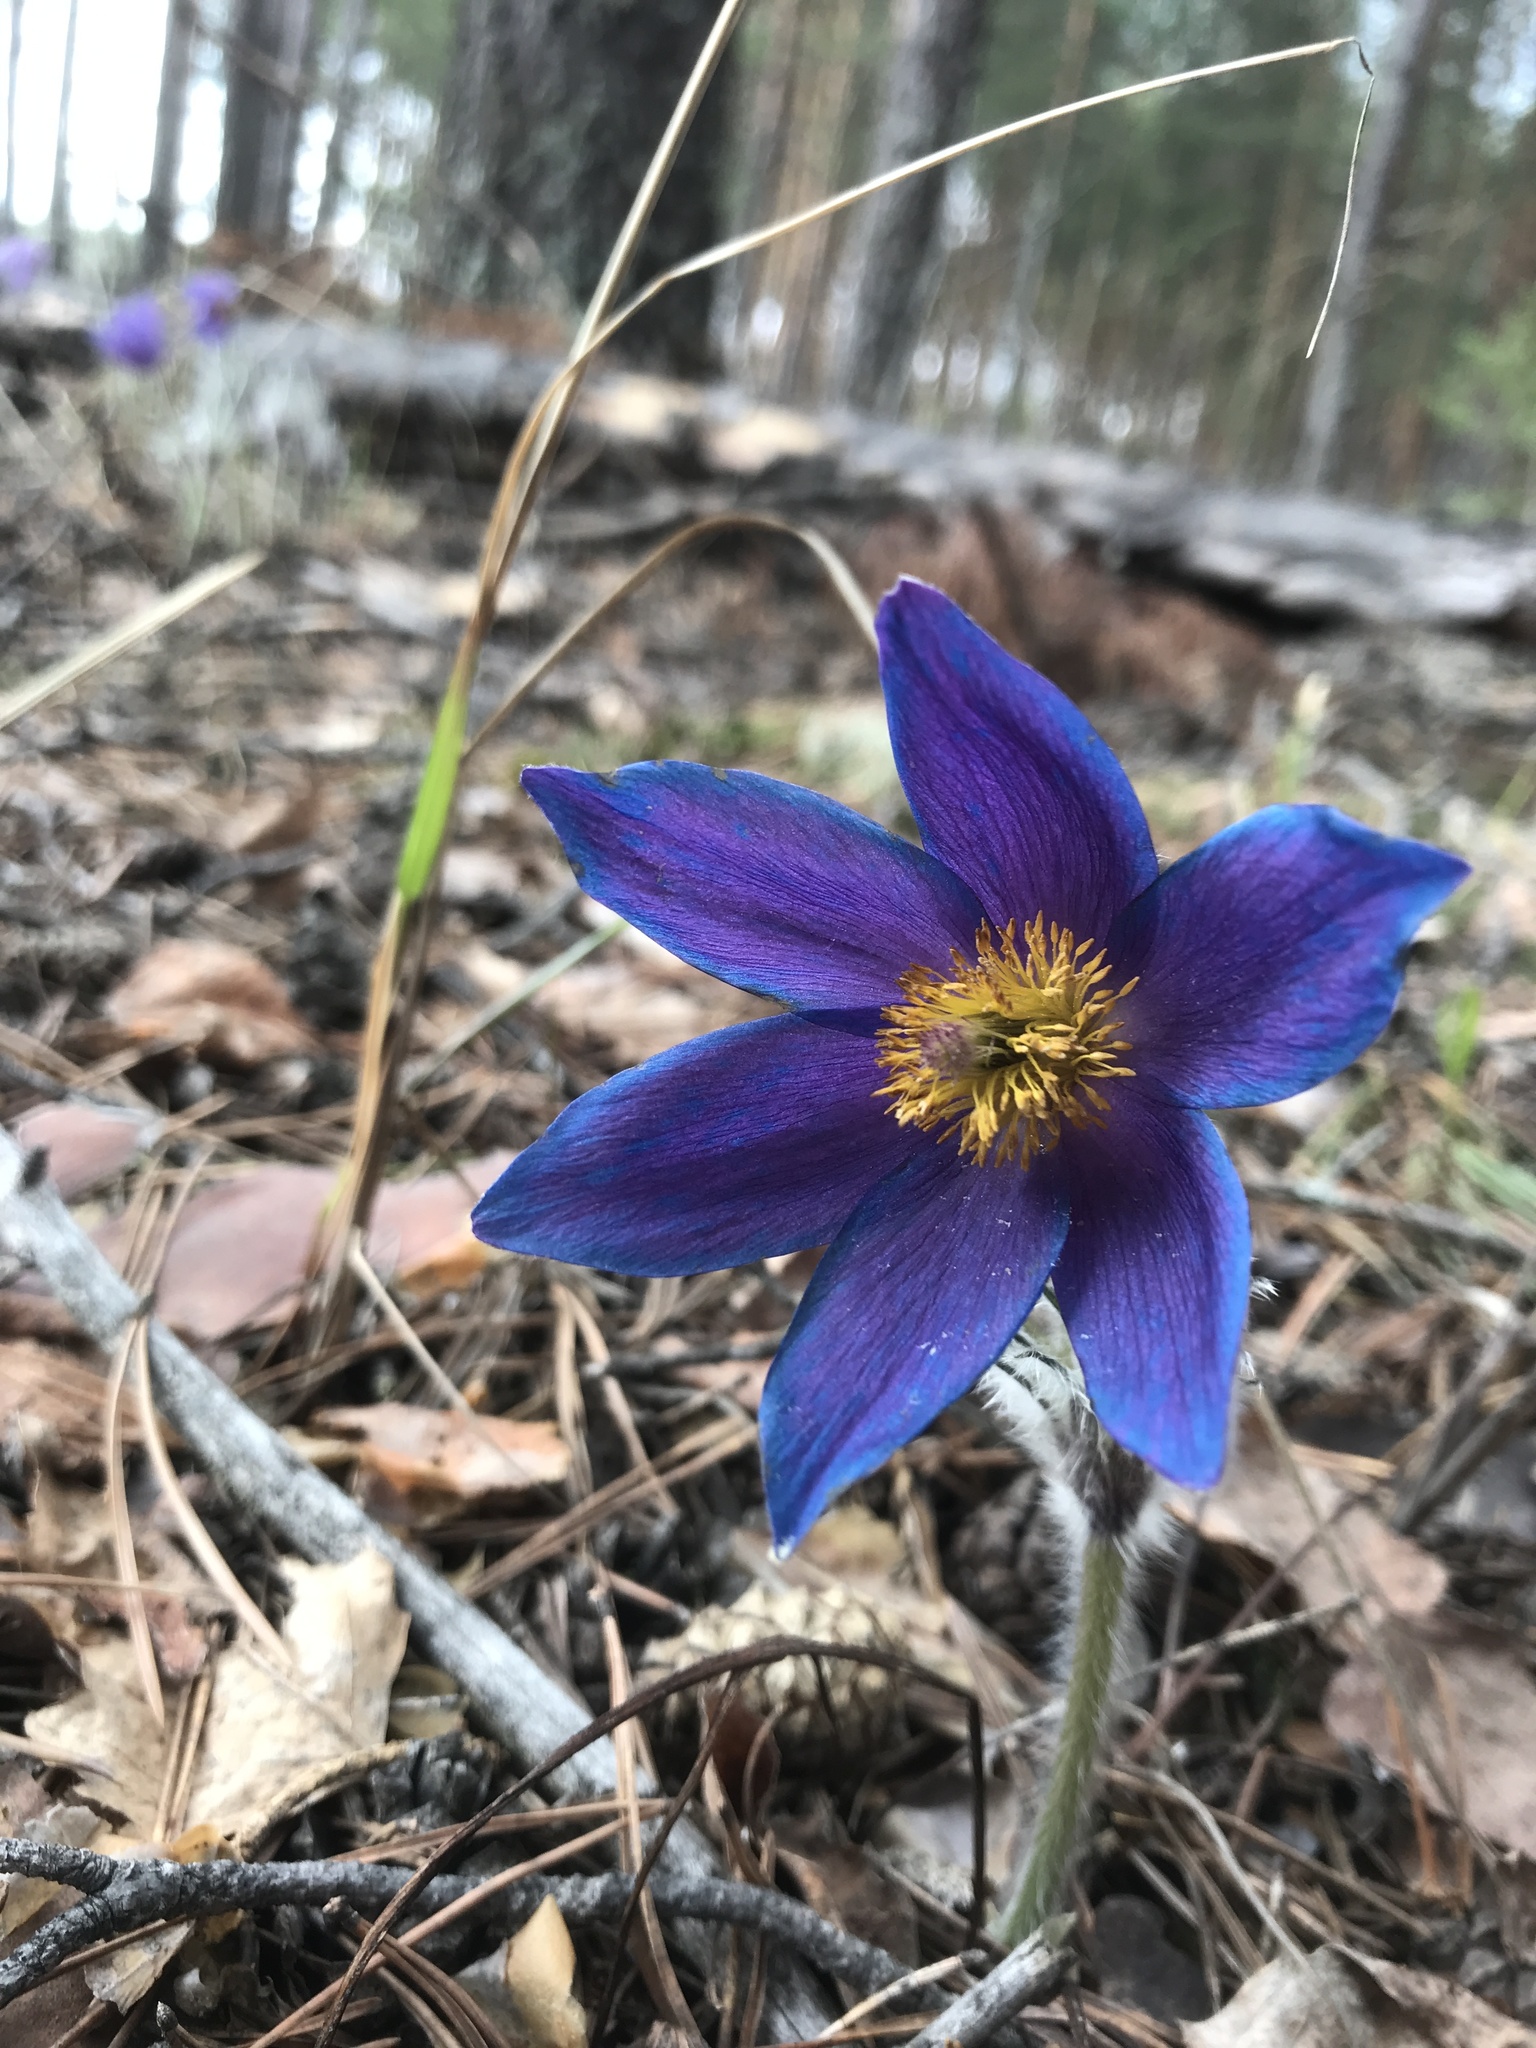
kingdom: Plantae
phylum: Tracheophyta
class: Magnoliopsida
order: Ranunculales
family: Ranunculaceae
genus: Pulsatilla
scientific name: Pulsatilla patens
